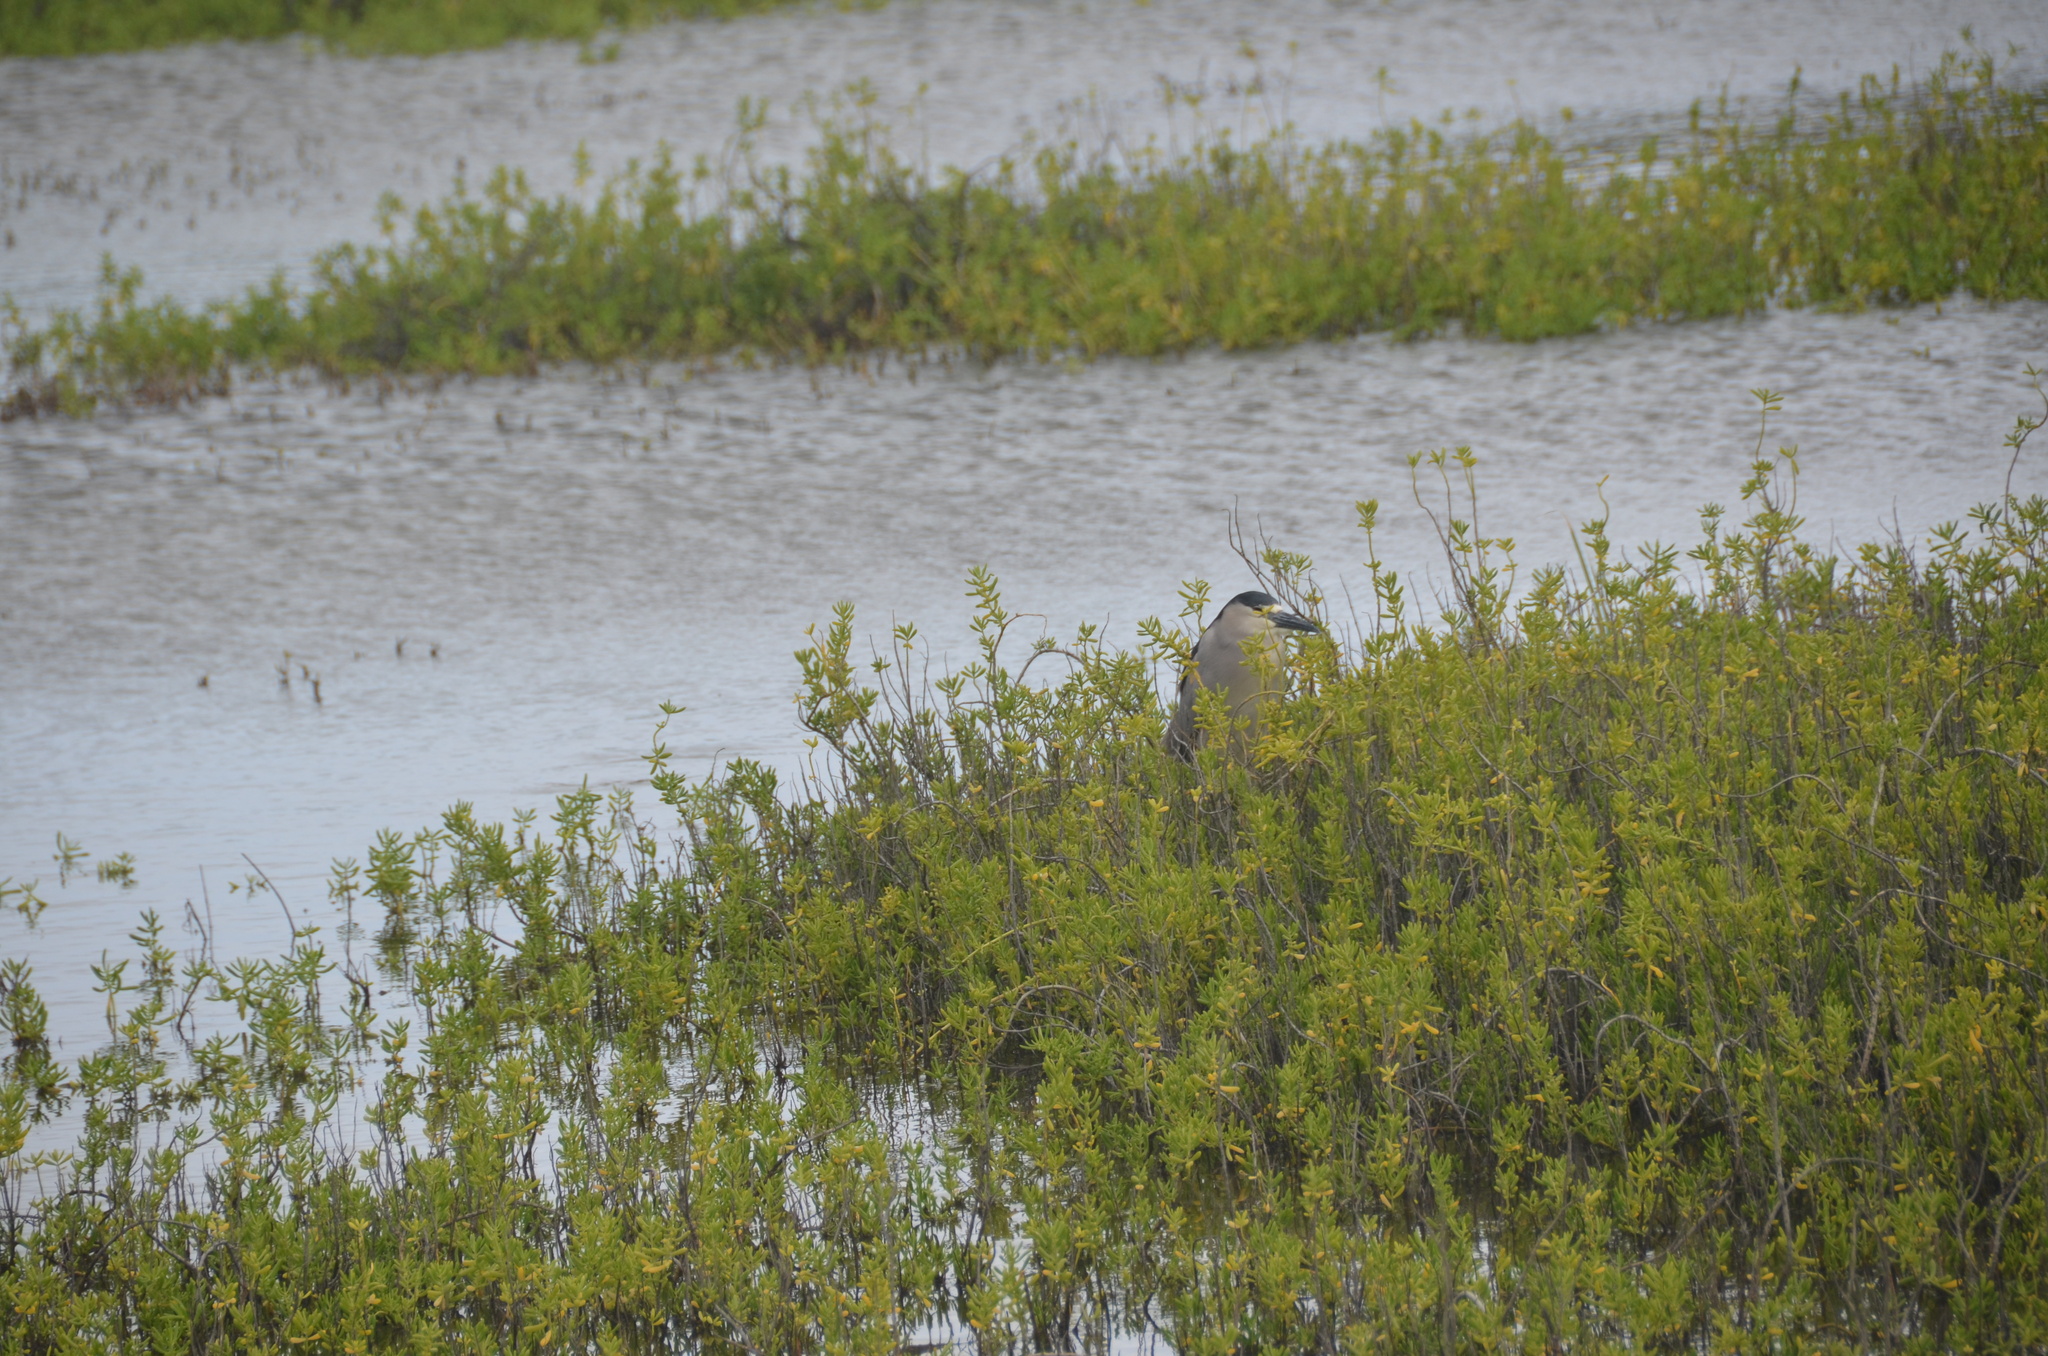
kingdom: Animalia
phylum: Chordata
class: Aves
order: Pelecaniformes
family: Ardeidae
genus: Nycticorax
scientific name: Nycticorax nycticorax
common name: Black-crowned night heron
